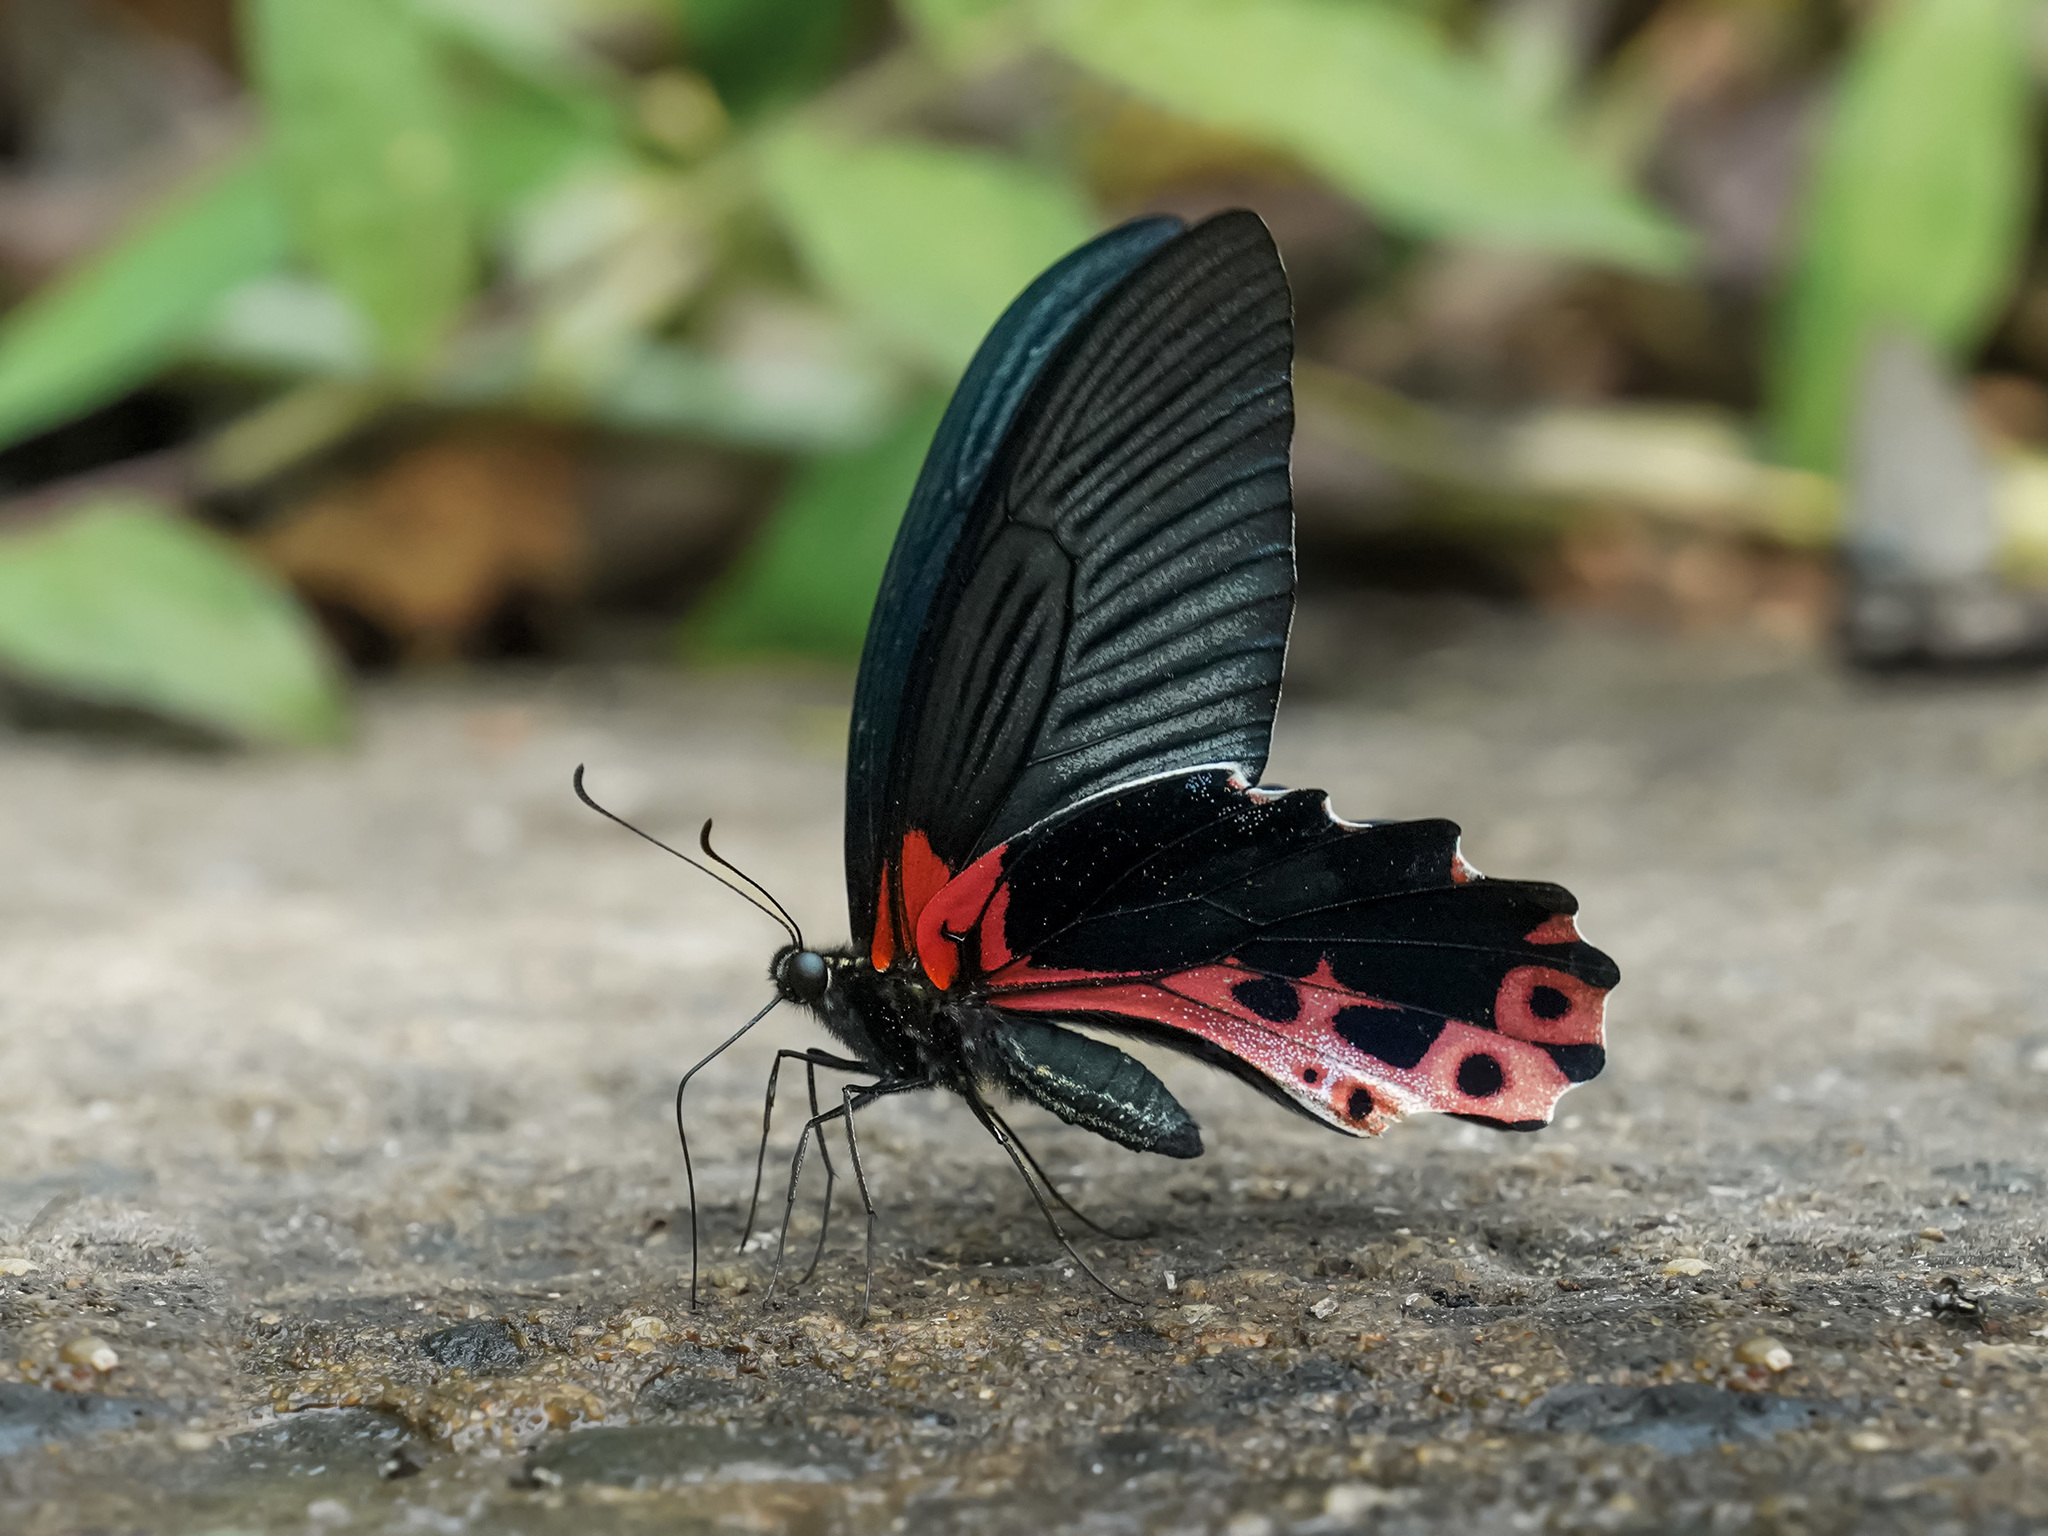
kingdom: Animalia
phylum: Arthropoda
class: Insecta
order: Lepidoptera
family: Papilionidae
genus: Papilio
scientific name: Papilio alcmenor
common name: Redbreast
